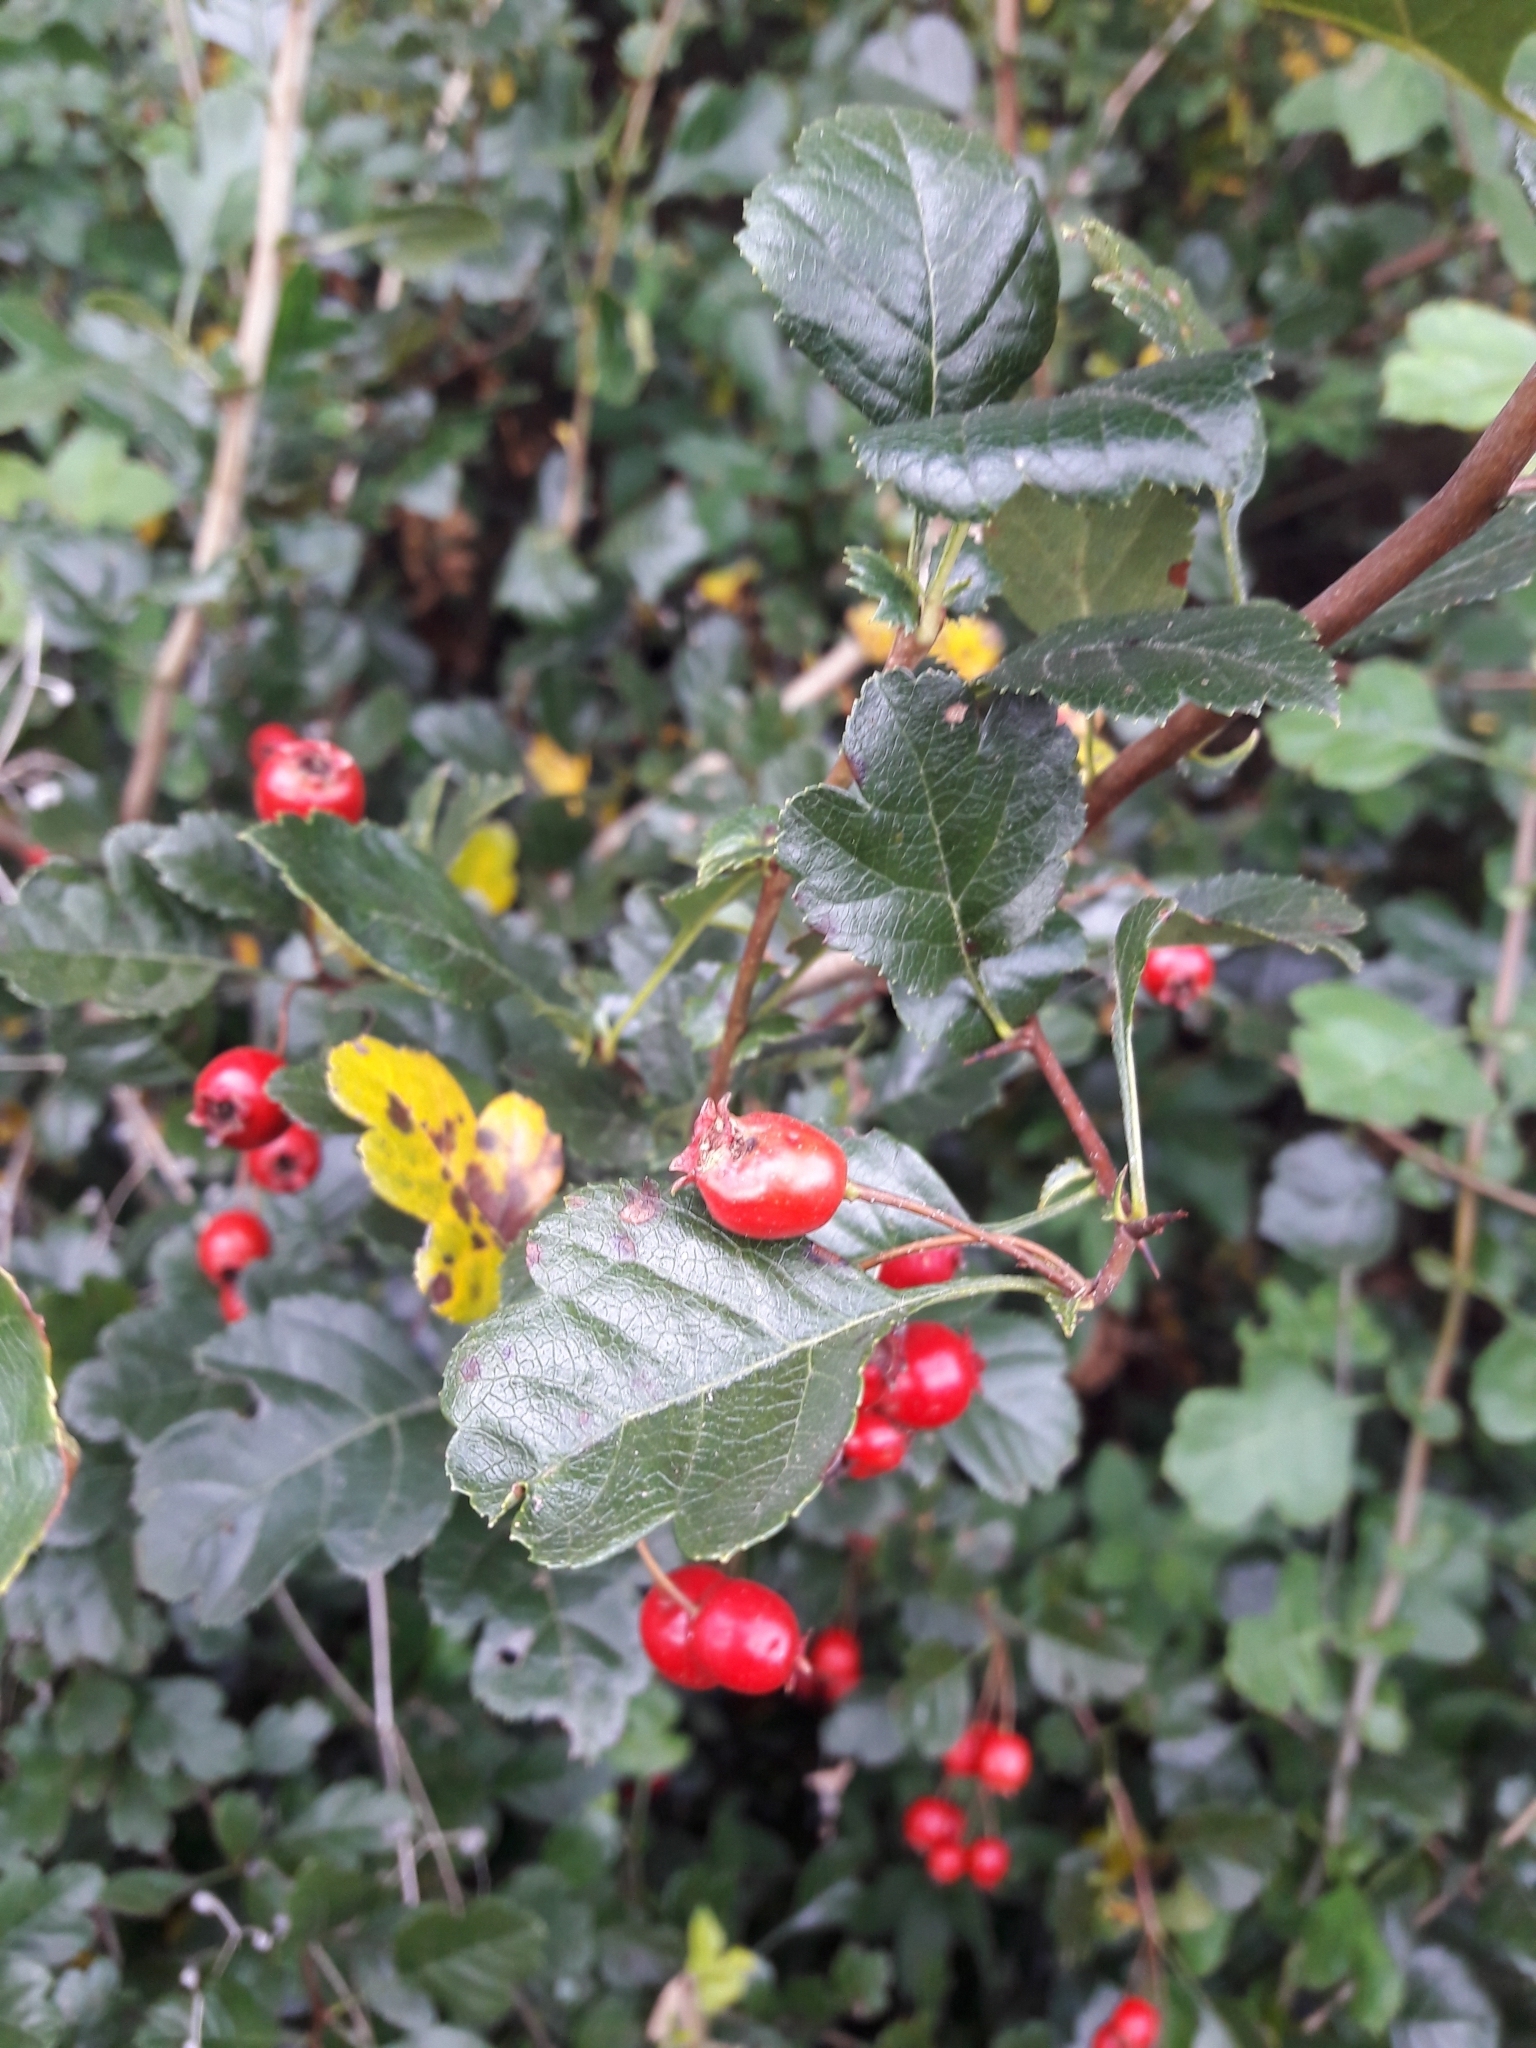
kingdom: Plantae
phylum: Tracheophyta
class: Magnoliopsida
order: Rosales
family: Rosaceae
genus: Crataegus
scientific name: Crataegus laevigata
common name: Midland hawthorn
